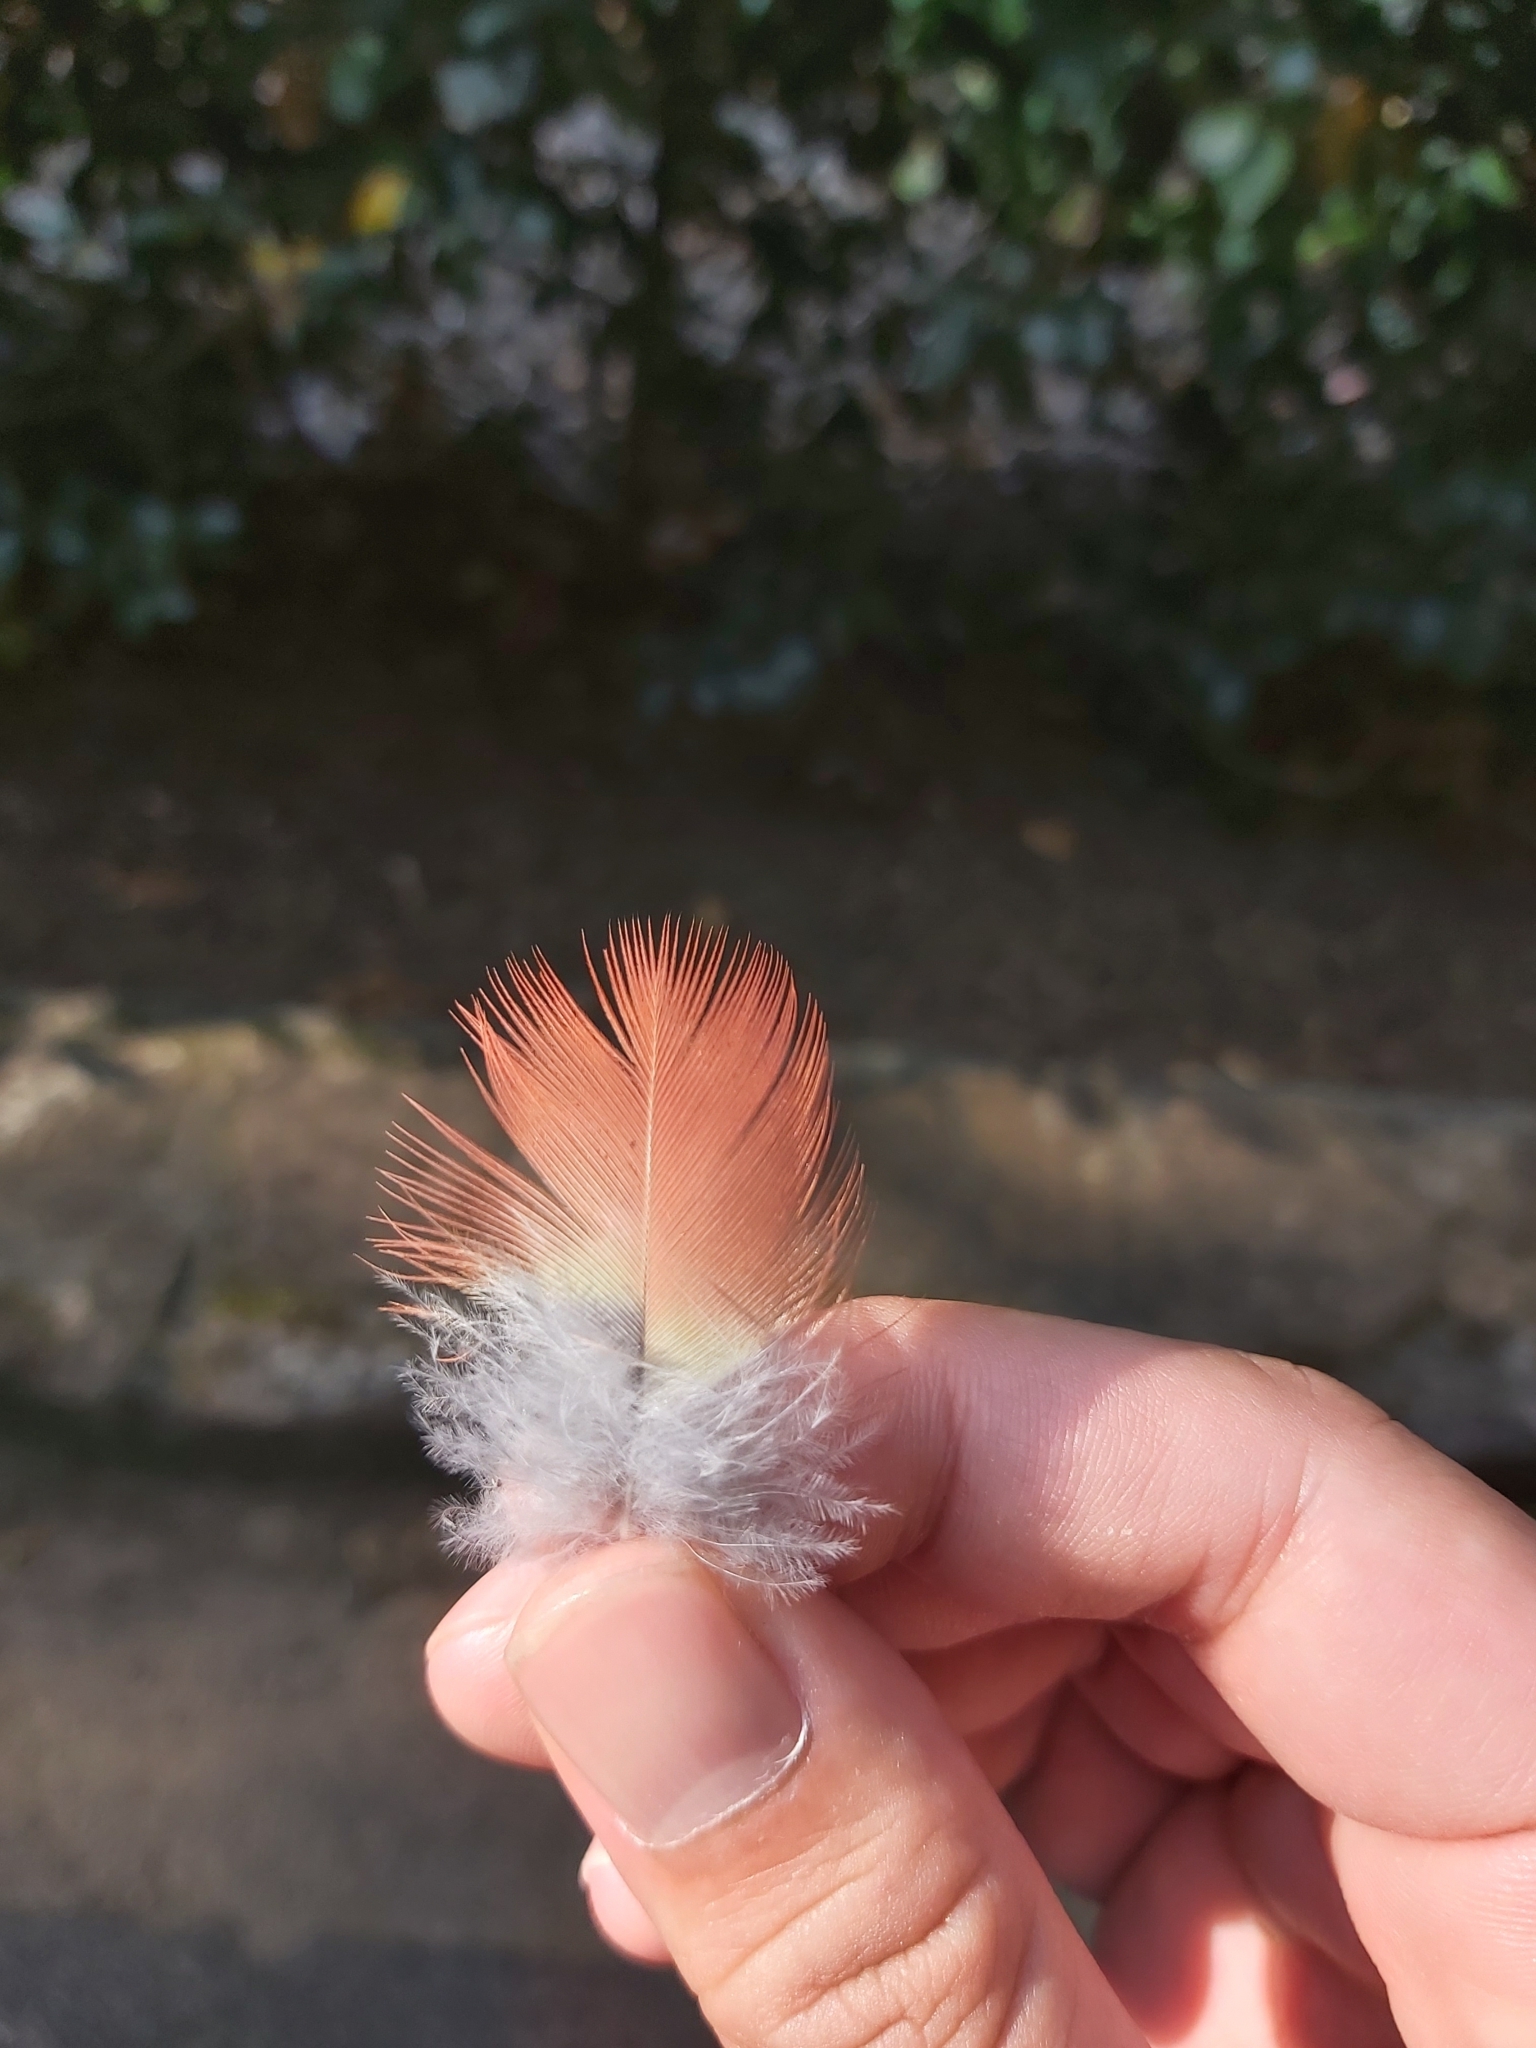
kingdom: Animalia
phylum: Chordata
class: Aves
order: Psittaciformes
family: Psittacidae
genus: Platycercus
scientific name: Platycercus eximius
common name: Eastern rosella
